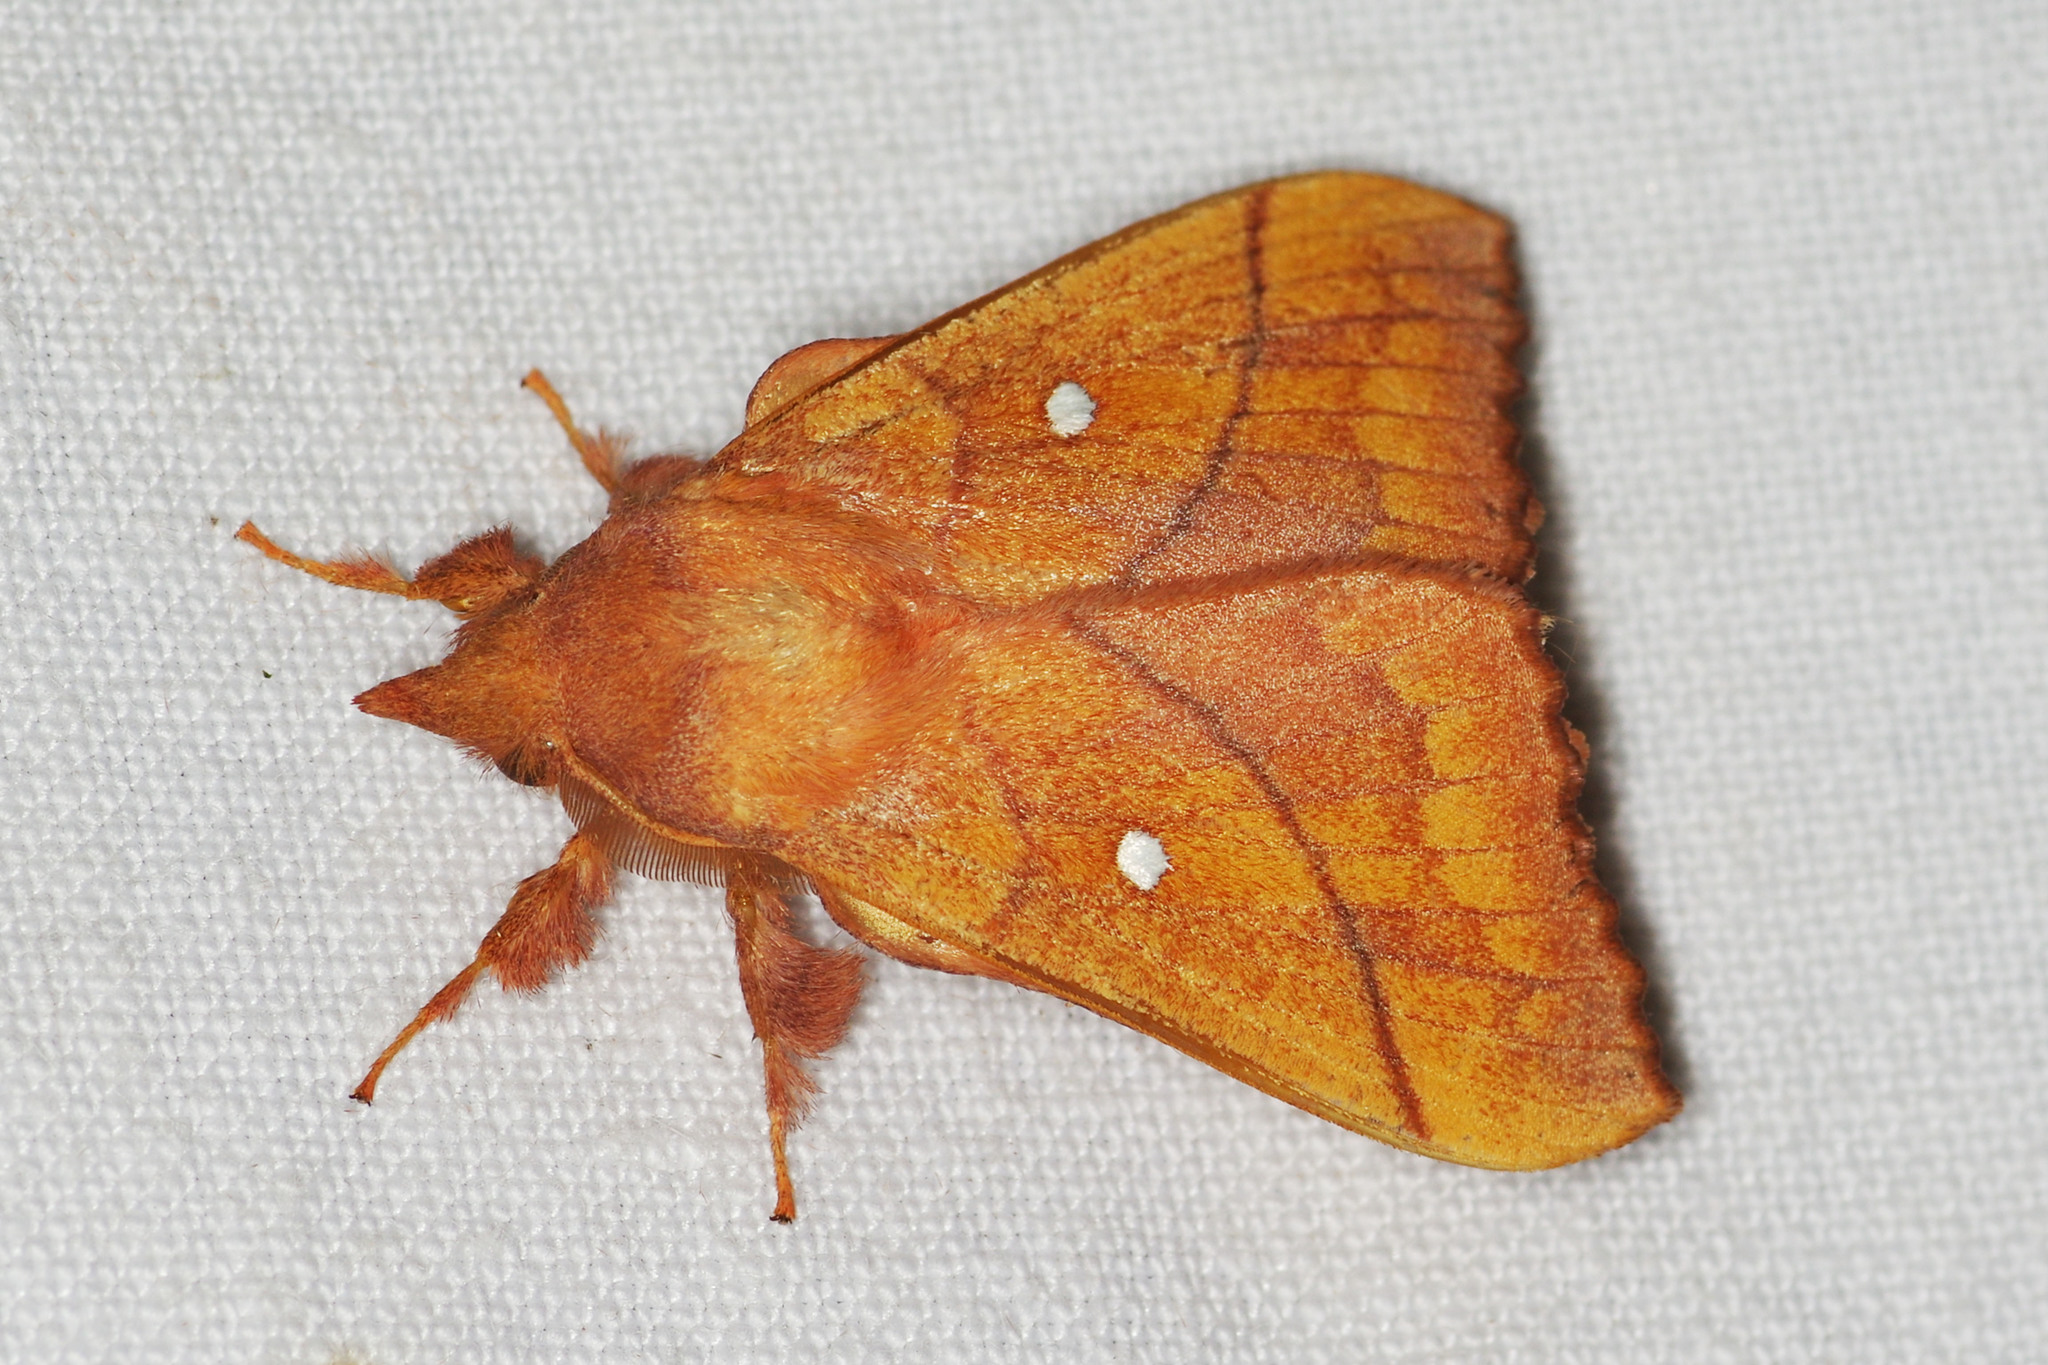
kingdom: Animalia
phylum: Arthropoda
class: Insecta
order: Lepidoptera
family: Lasiocampidae
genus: Odonestis
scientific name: Odonestis pruni
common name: Plum lappet
